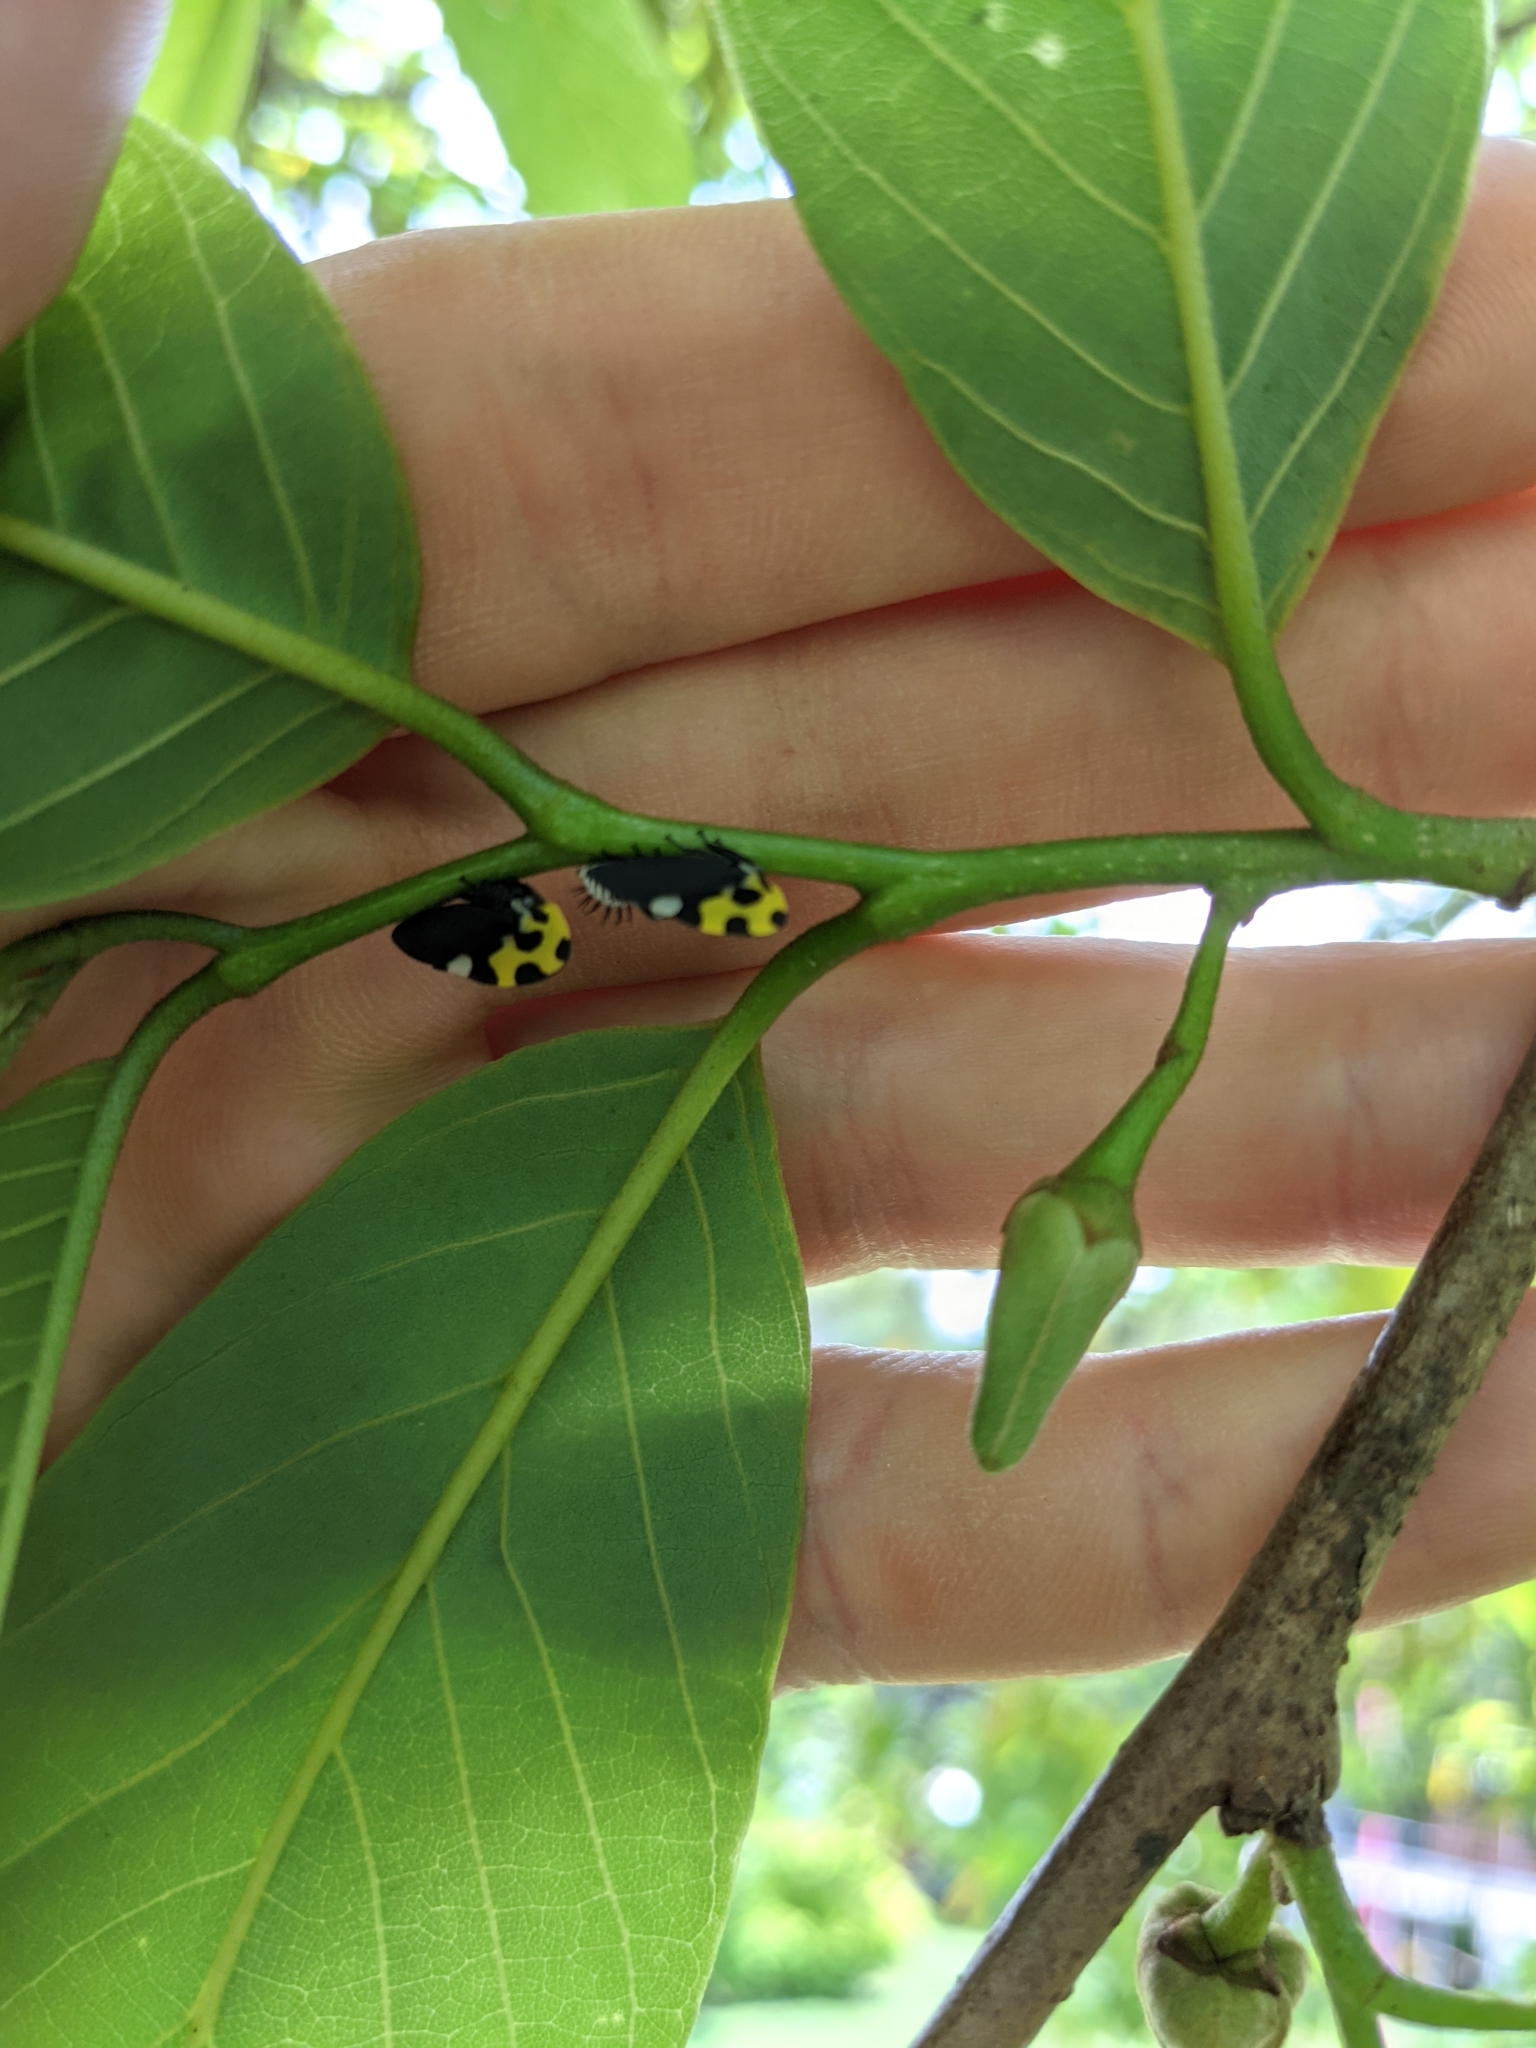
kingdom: Animalia
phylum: Arthropoda
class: Insecta
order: Hemiptera
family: Membracidae
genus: Membracis
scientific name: Membracis mexicana
